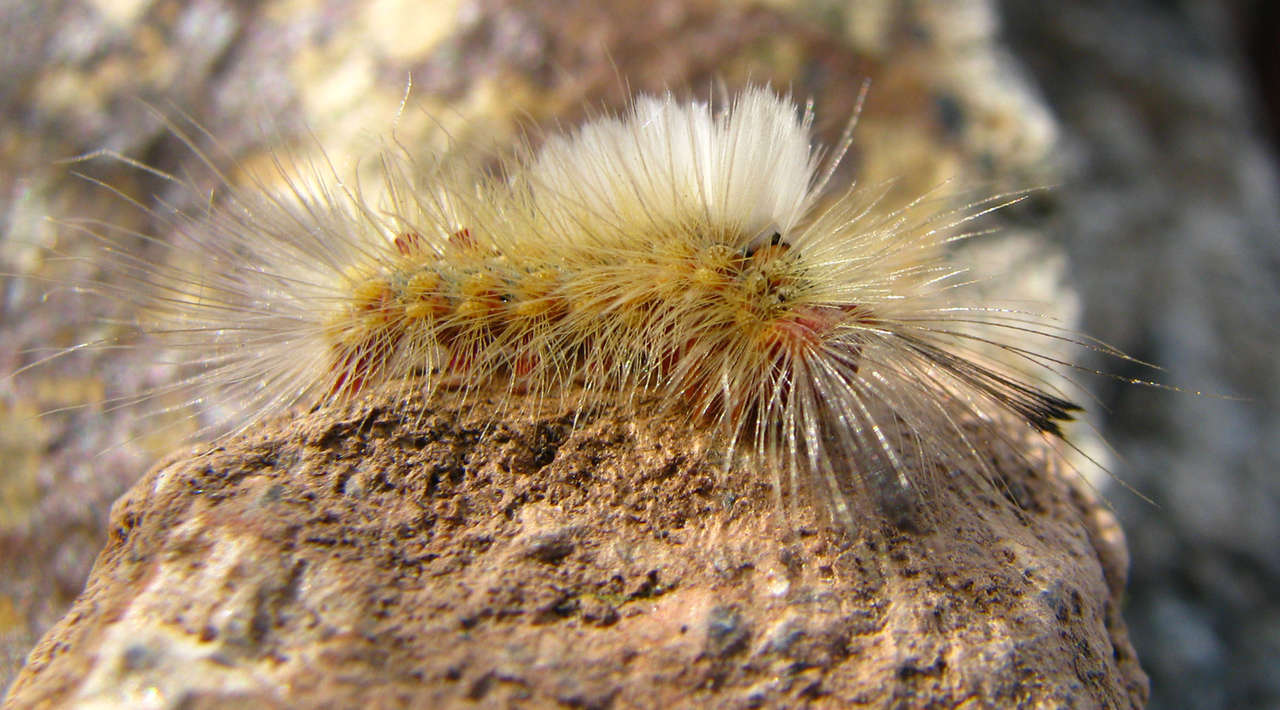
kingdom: Animalia
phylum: Arthropoda
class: Insecta
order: Lepidoptera
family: Erebidae
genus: Orgyia
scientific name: Orgyia
